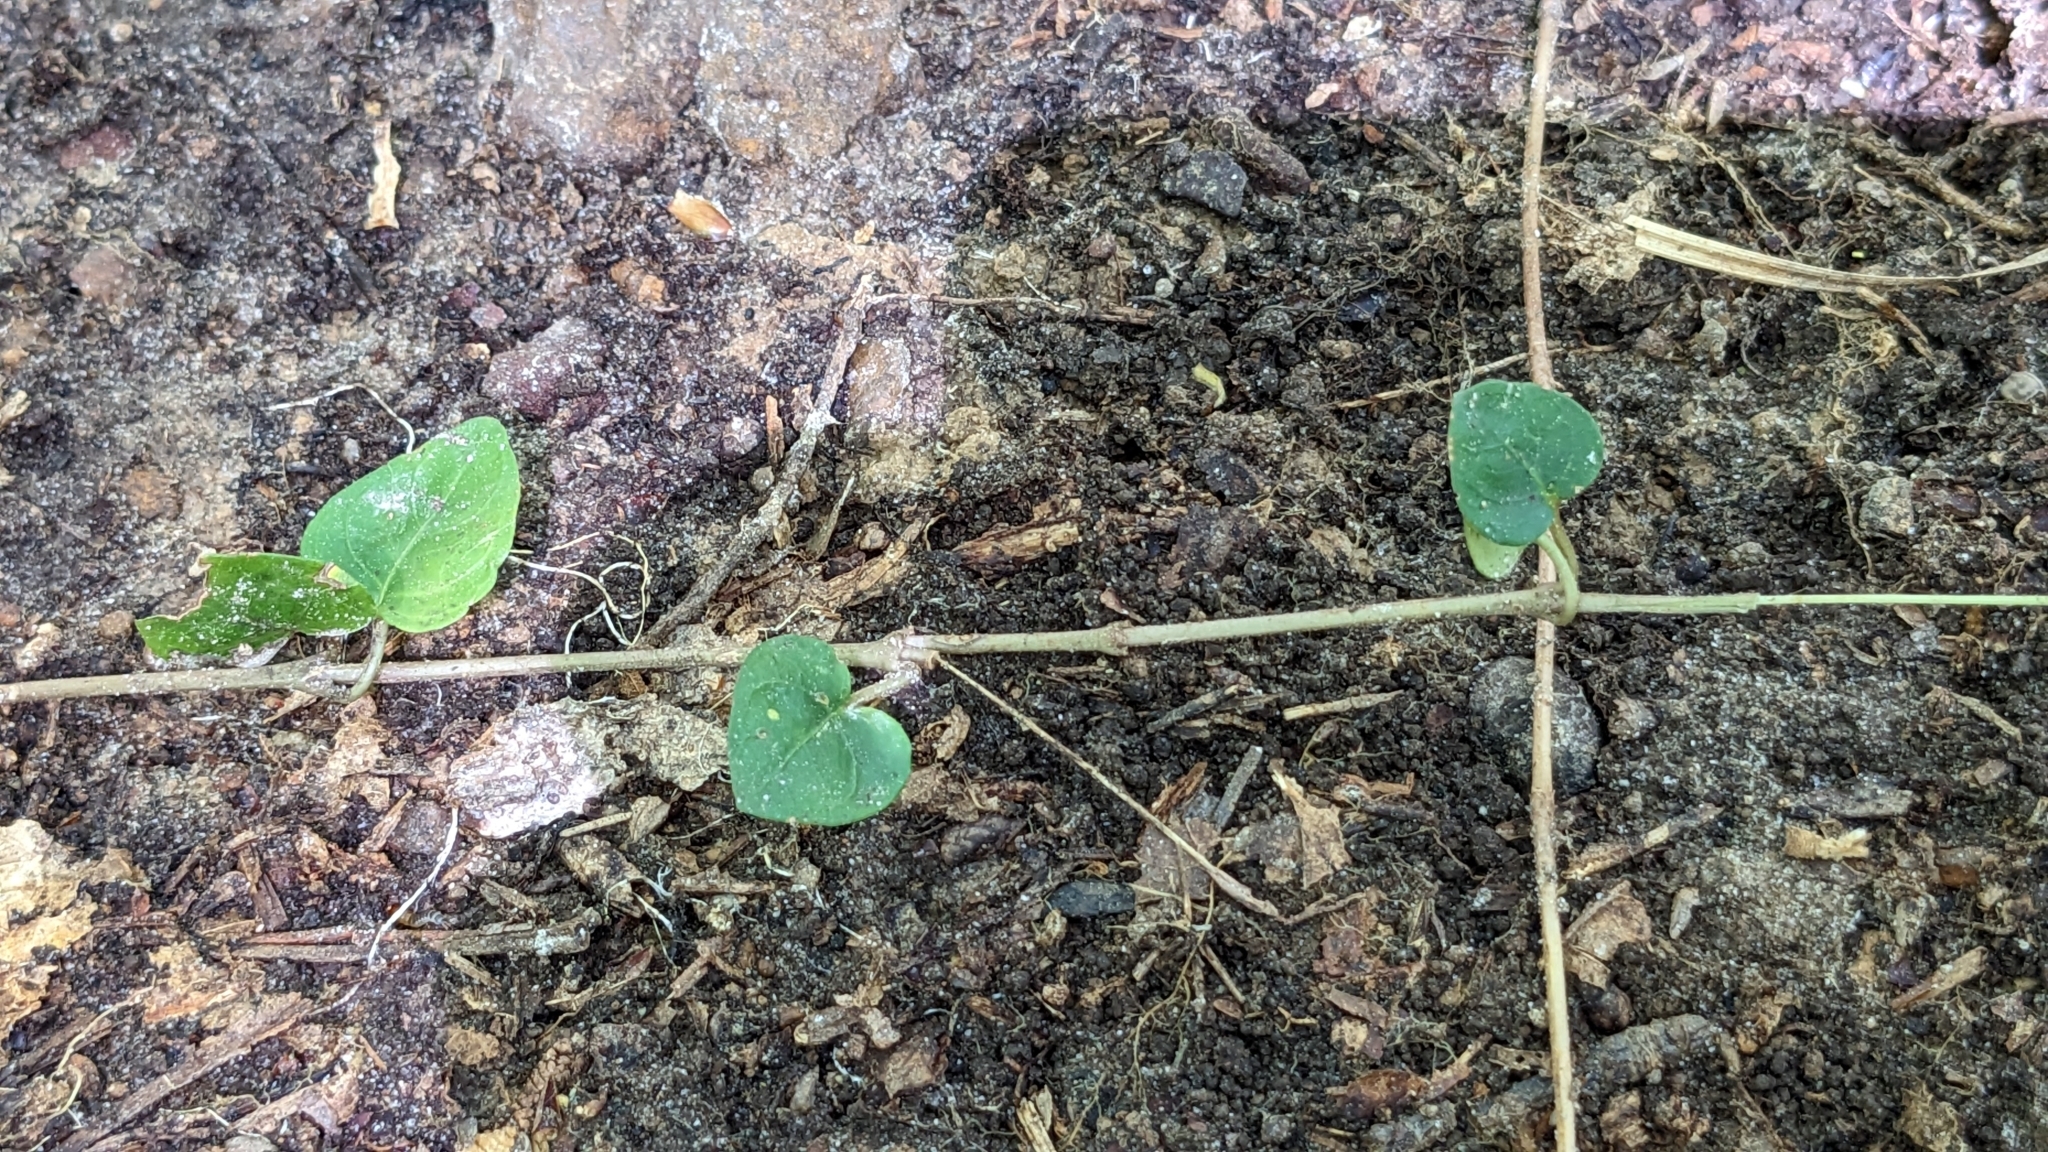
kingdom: Plantae
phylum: Tracheophyta
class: Magnoliopsida
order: Gentianales
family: Rubiaceae
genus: Mitchella
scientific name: Mitchella repens
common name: Partridge-berry
